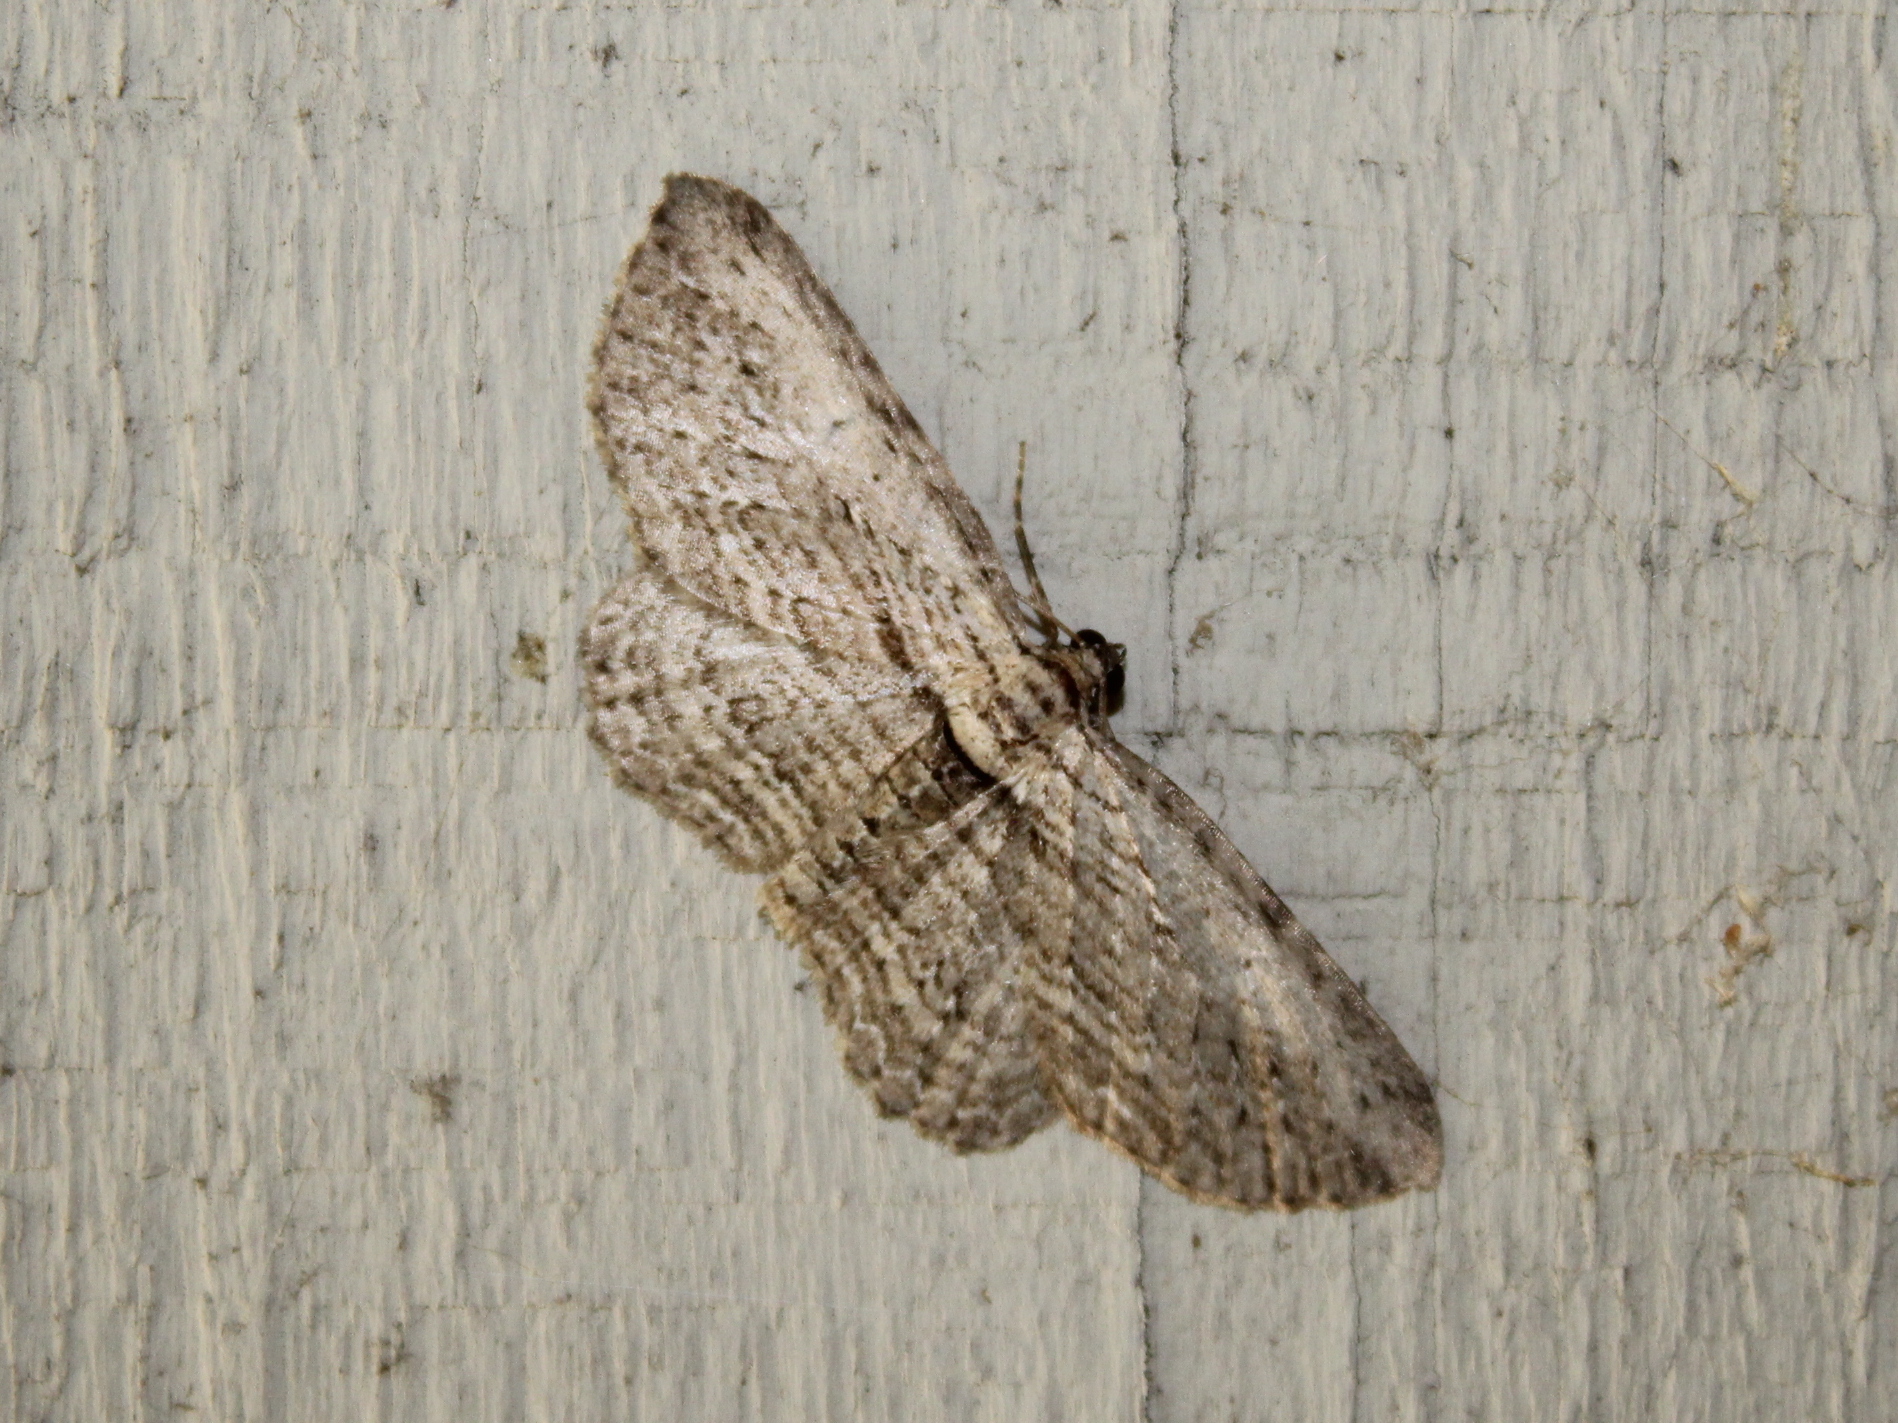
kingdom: Animalia
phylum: Arthropoda
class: Insecta
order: Lepidoptera
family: Geometridae
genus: Horisme
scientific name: Horisme intestinata
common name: Brown bark carpet
